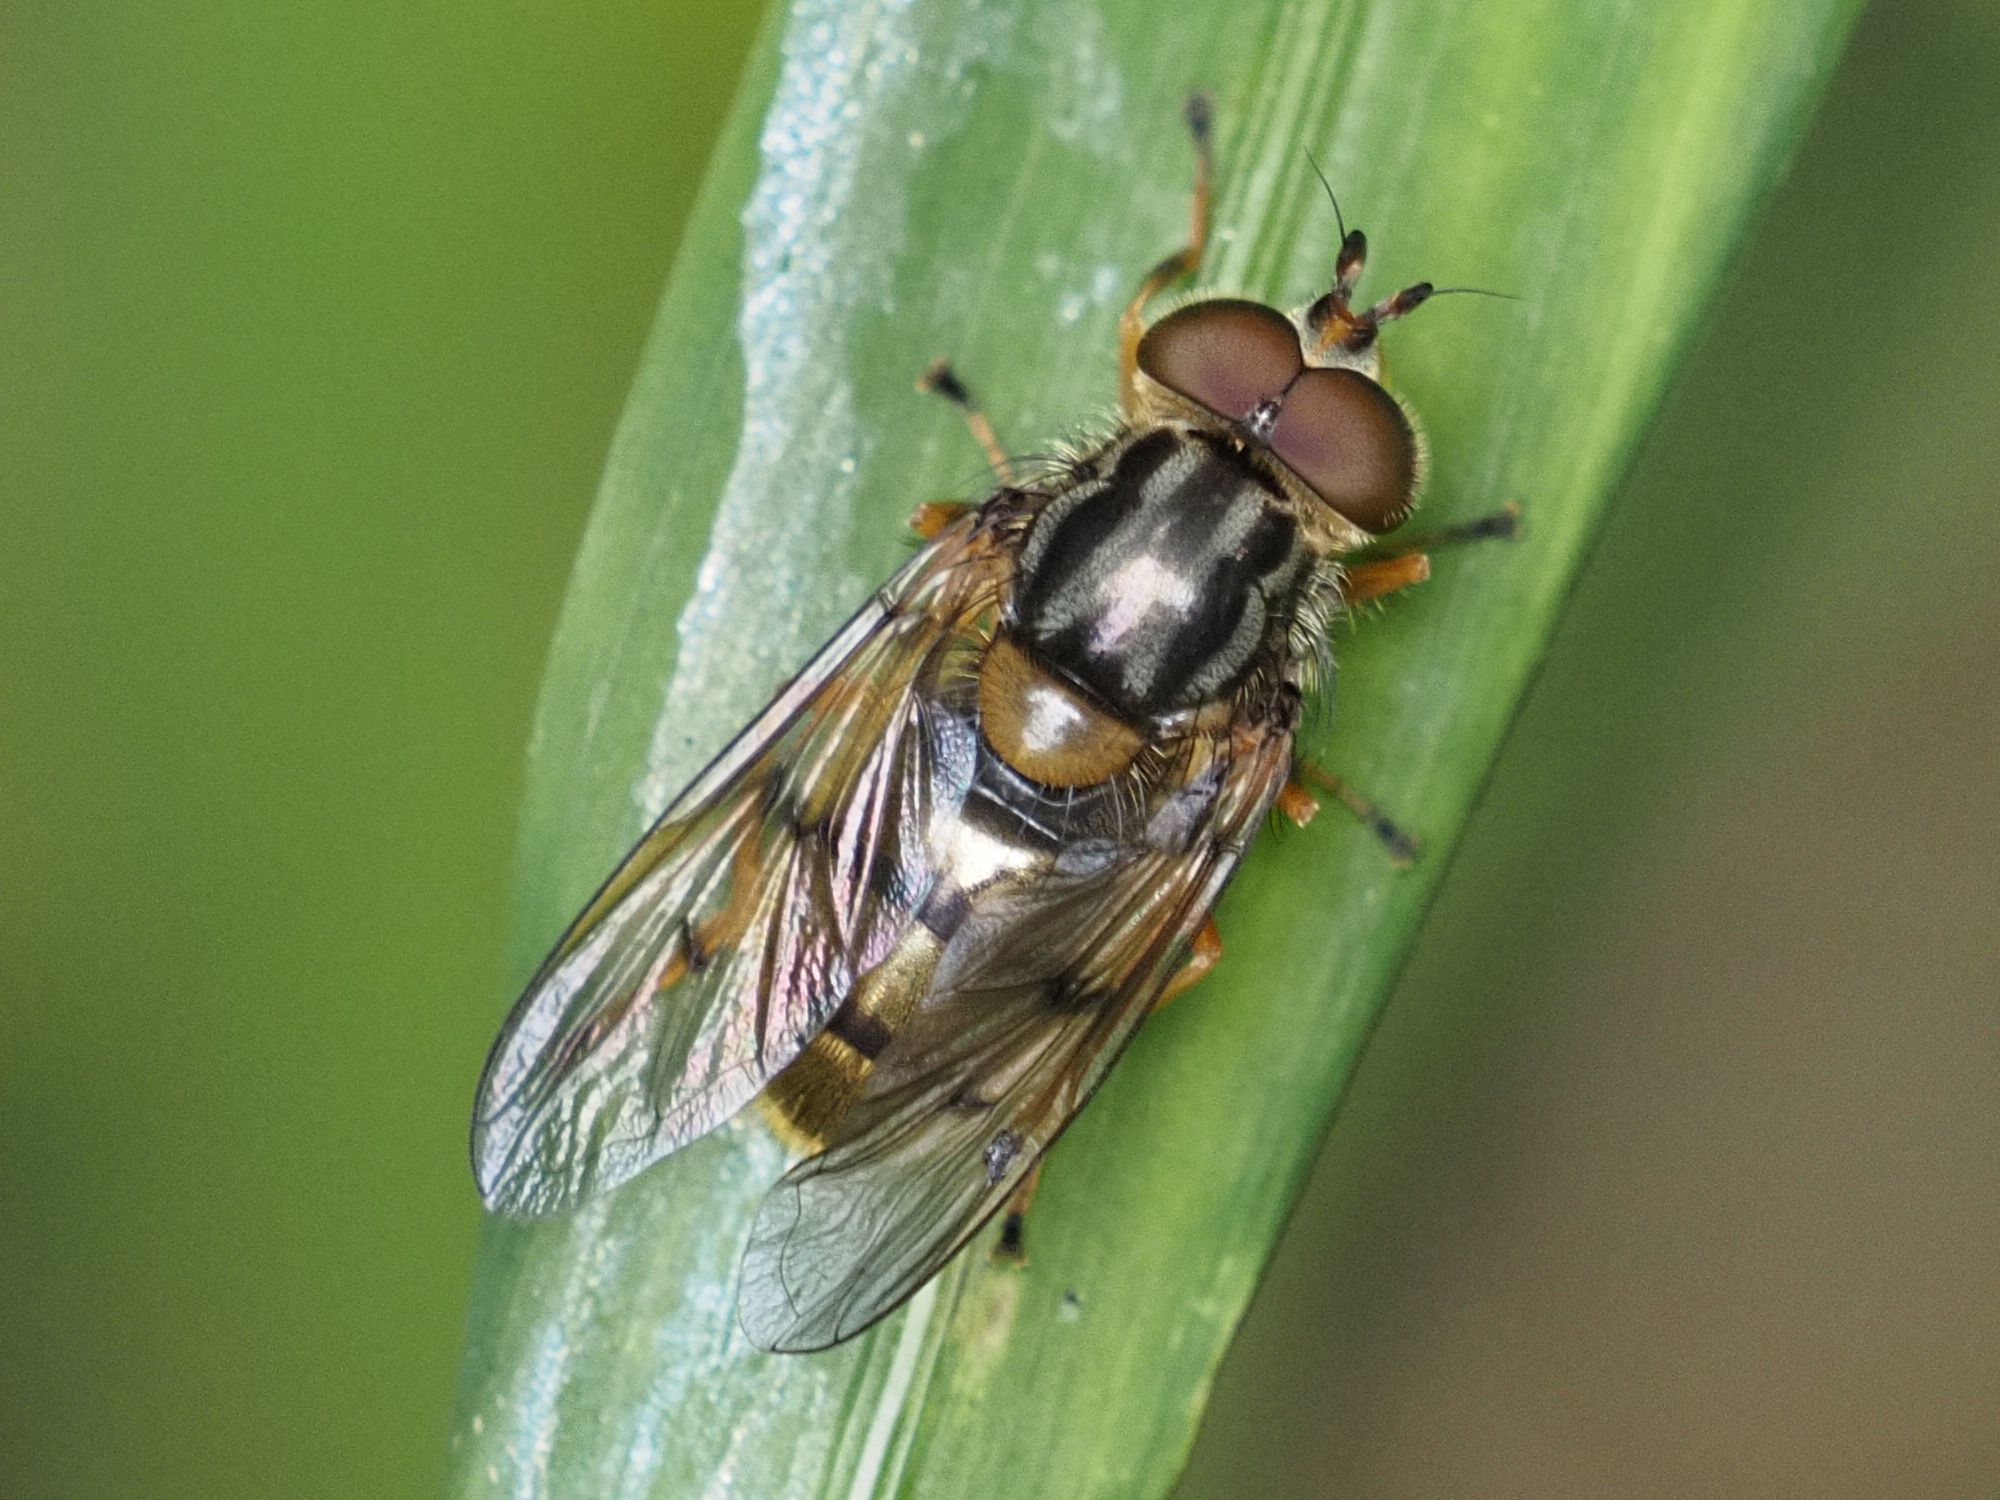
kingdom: Animalia
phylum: Arthropoda
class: Insecta
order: Diptera
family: Syrphidae
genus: Ferdinandea
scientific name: Ferdinandea cuprea
